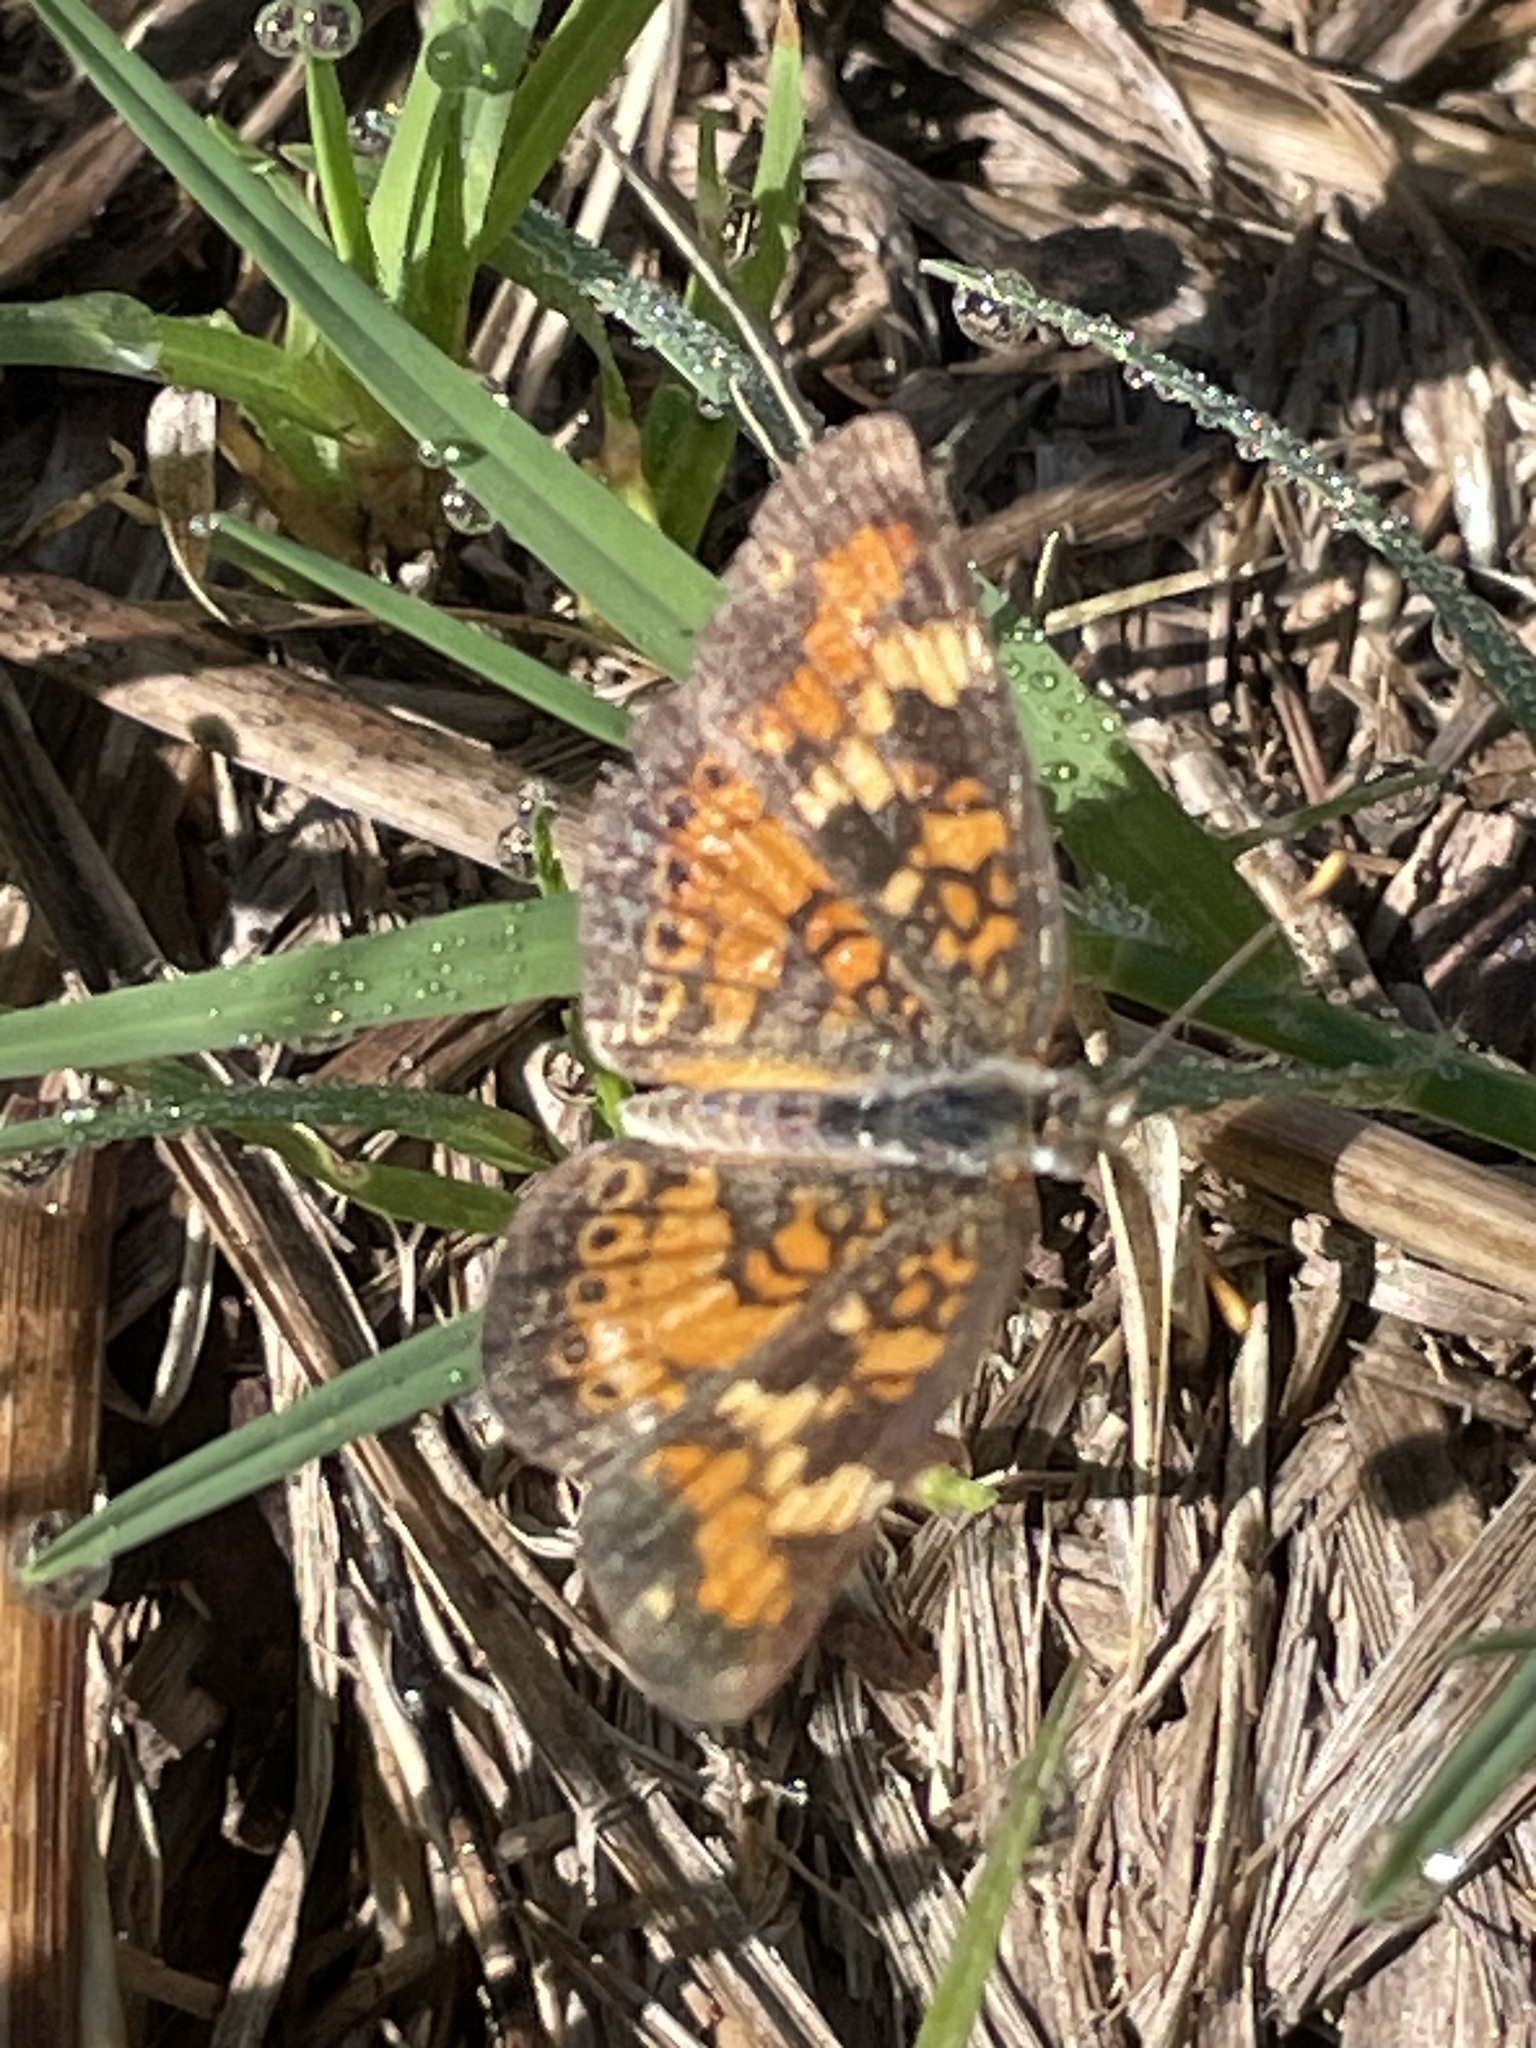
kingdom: Animalia
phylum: Arthropoda
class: Insecta
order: Lepidoptera
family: Nymphalidae
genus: Phyciodes
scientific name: Phyciodes phaon
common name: Phaon crescent
